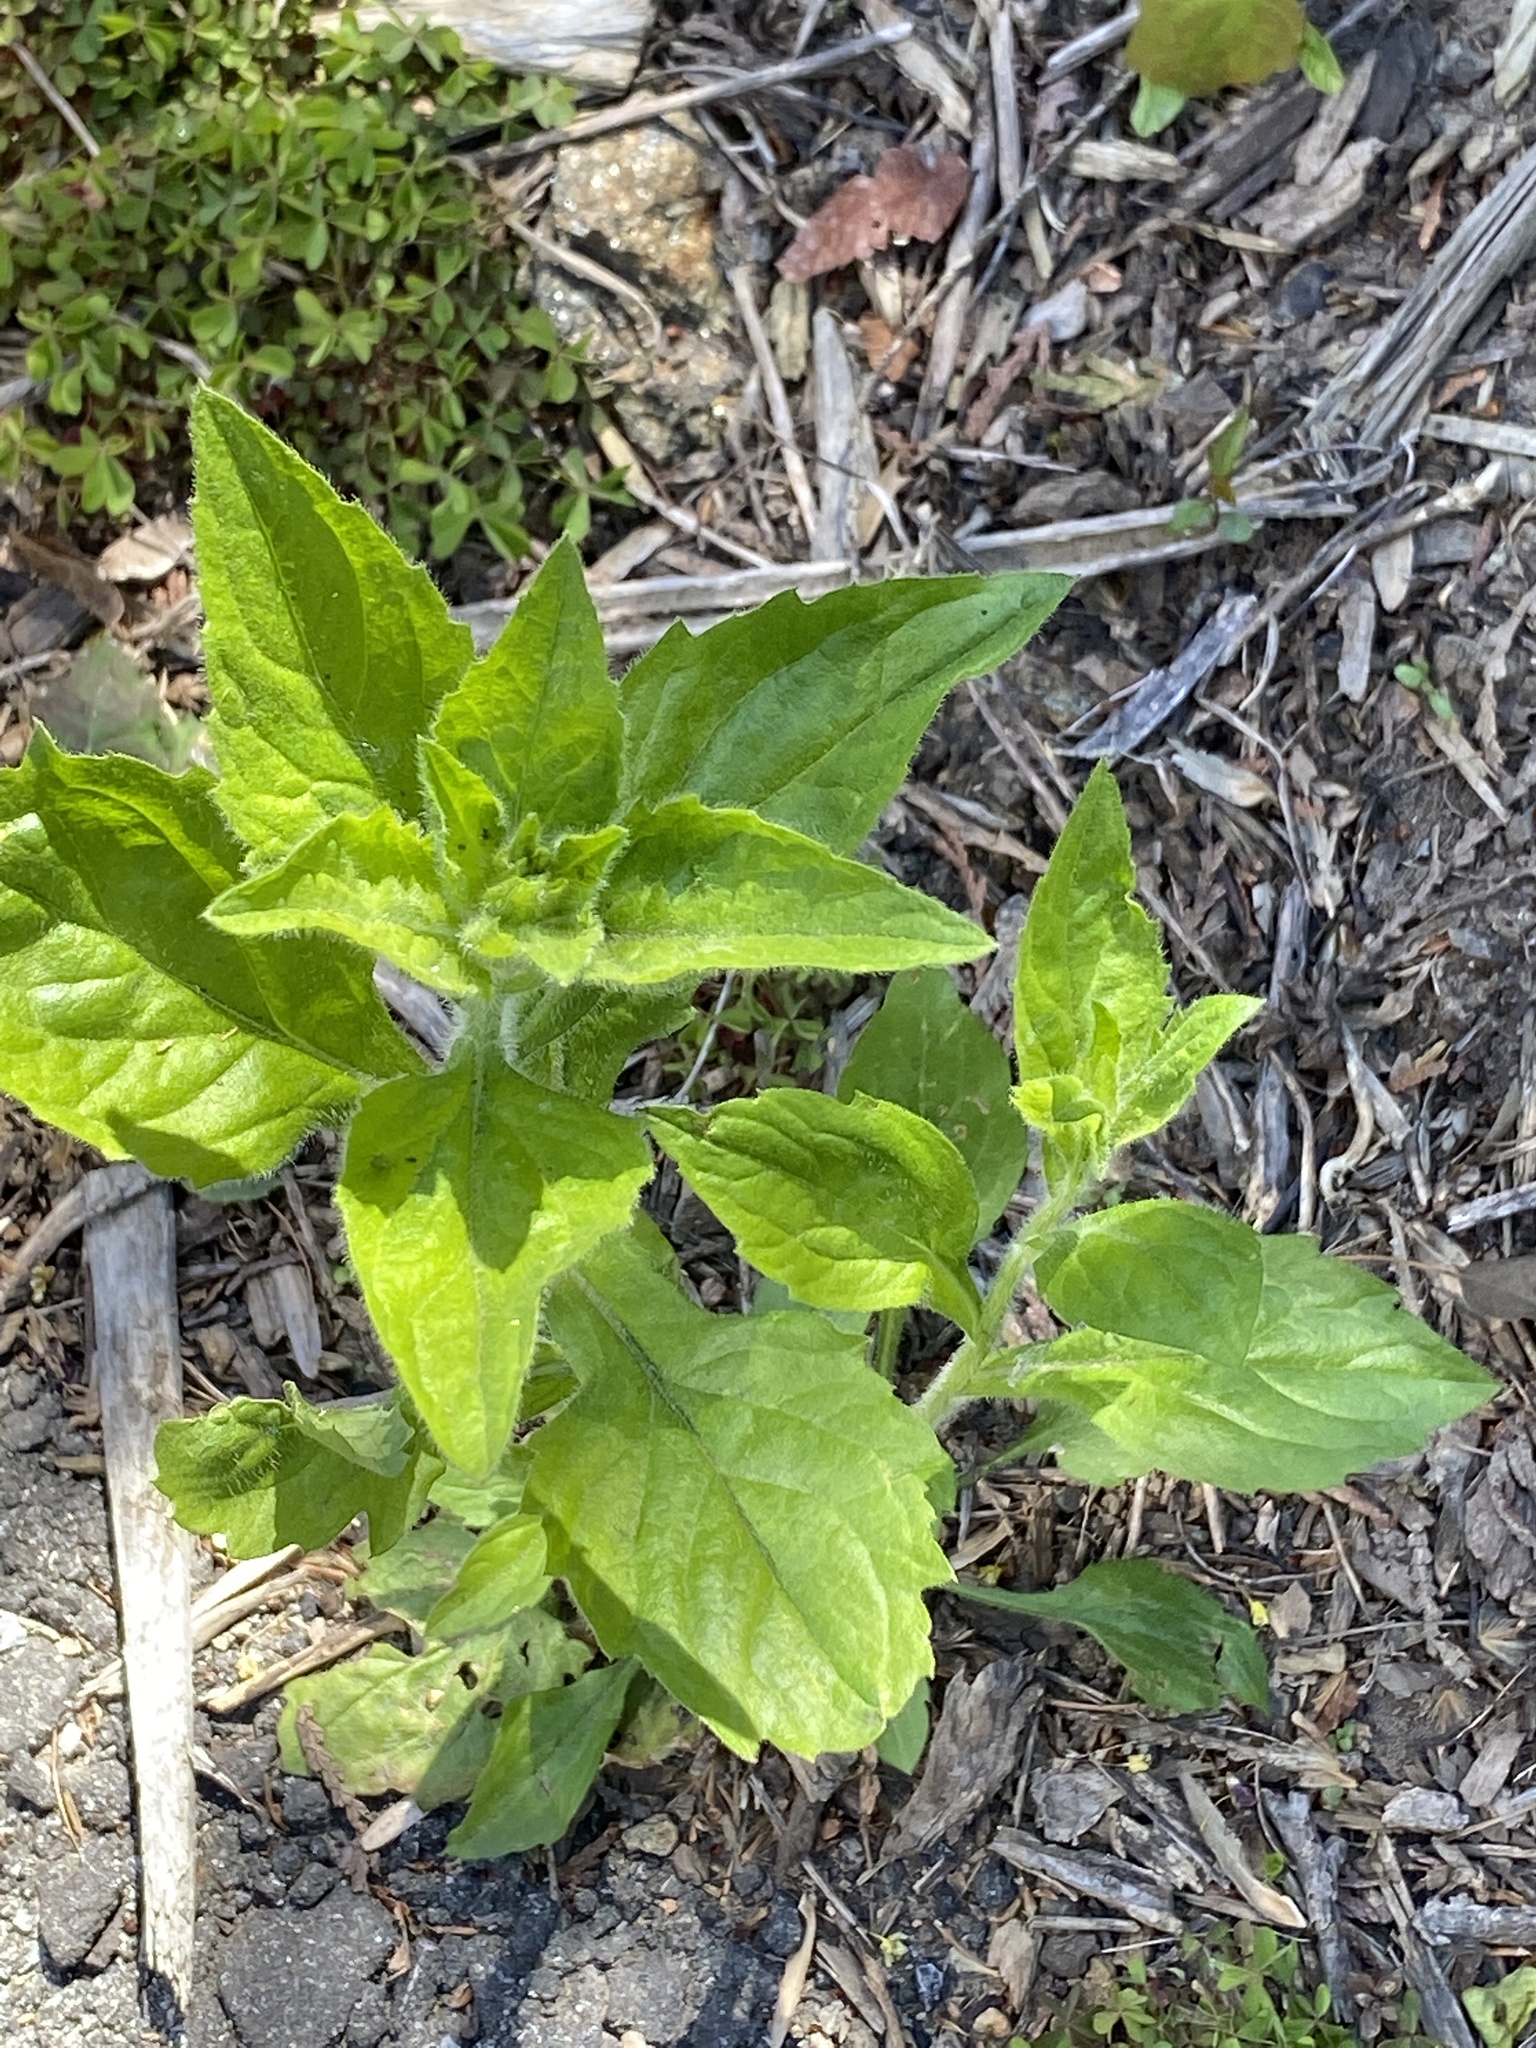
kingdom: Plantae
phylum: Tracheophyta
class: Magnoliopsida
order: Asterales
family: Asteraceae
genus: Erigeron
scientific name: Erigeron annuus
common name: Tall fleabane
